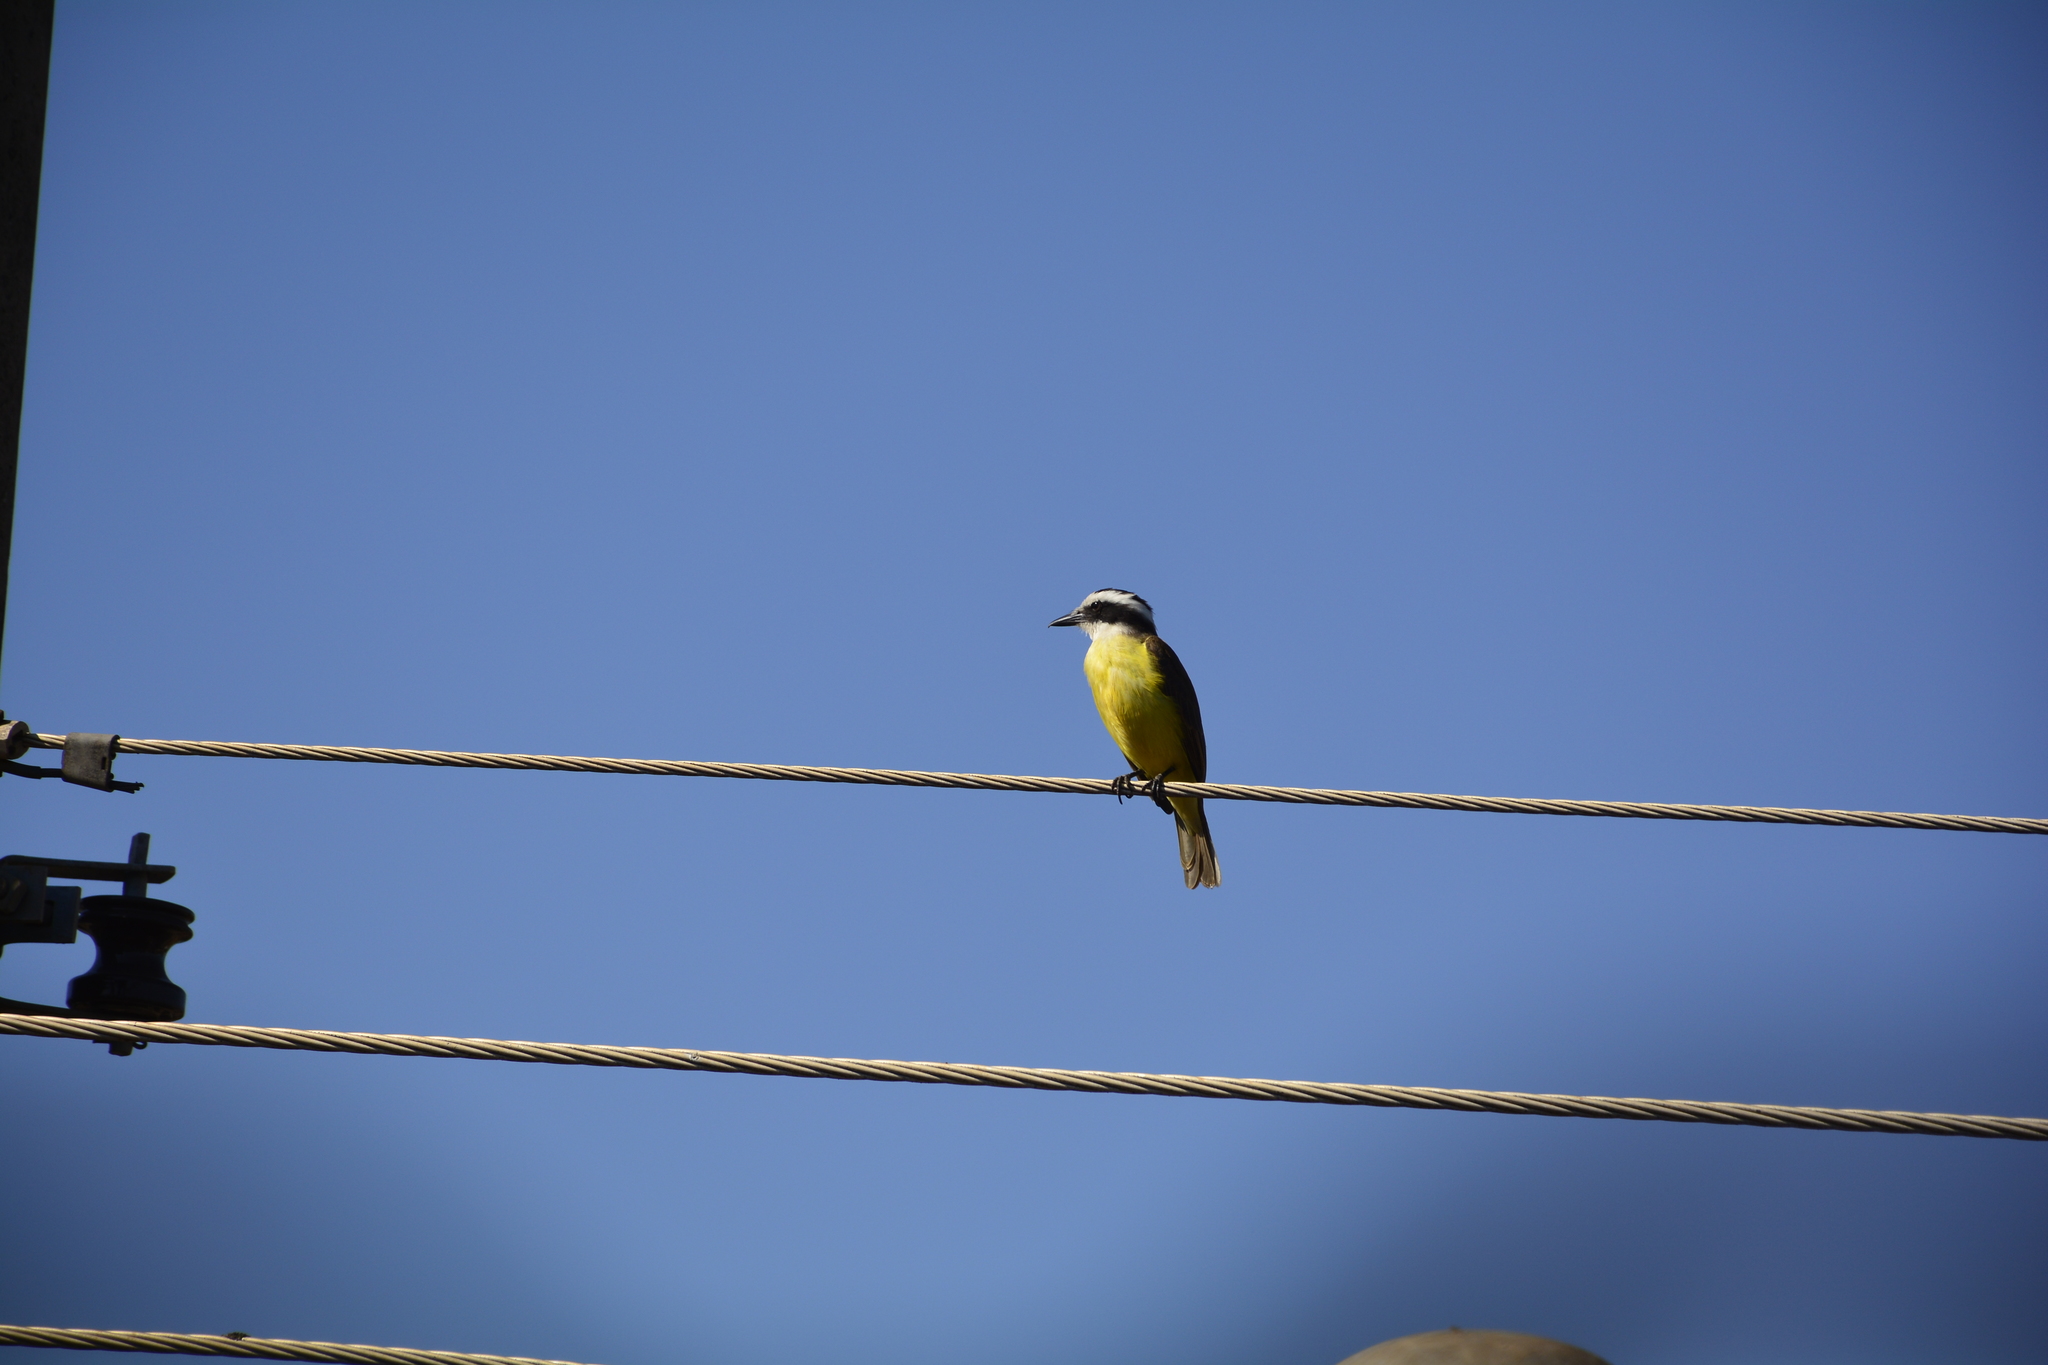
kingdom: Animalia
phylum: Chordata
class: Aves
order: Passeriformes
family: Tyrannidae
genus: Pitangus
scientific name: Pitangus sulphuratus
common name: Great kiskadee
